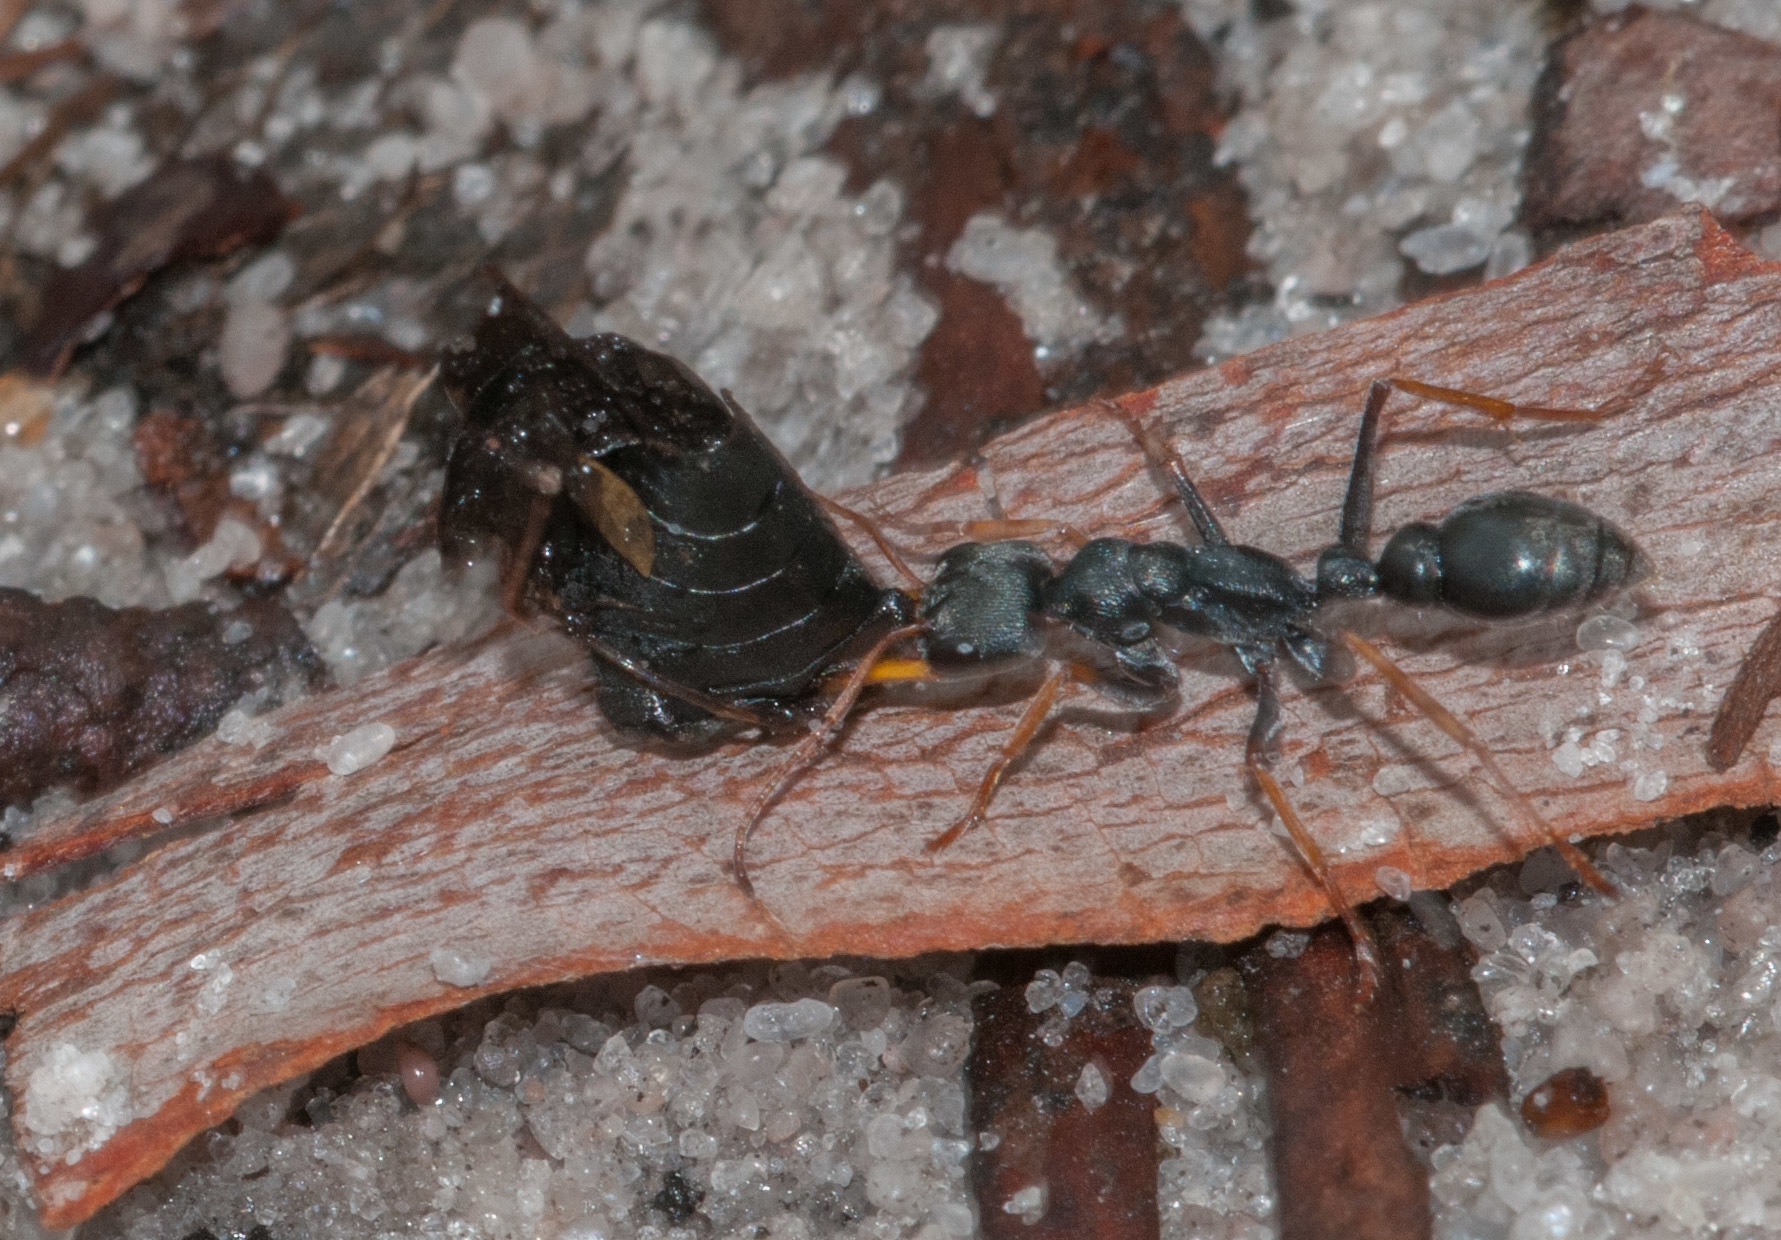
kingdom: Animalia
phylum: Arthropoda
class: Insecta
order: Hymenoptera
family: Formicidae
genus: Myrmecia
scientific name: Myrmecia pilosula
